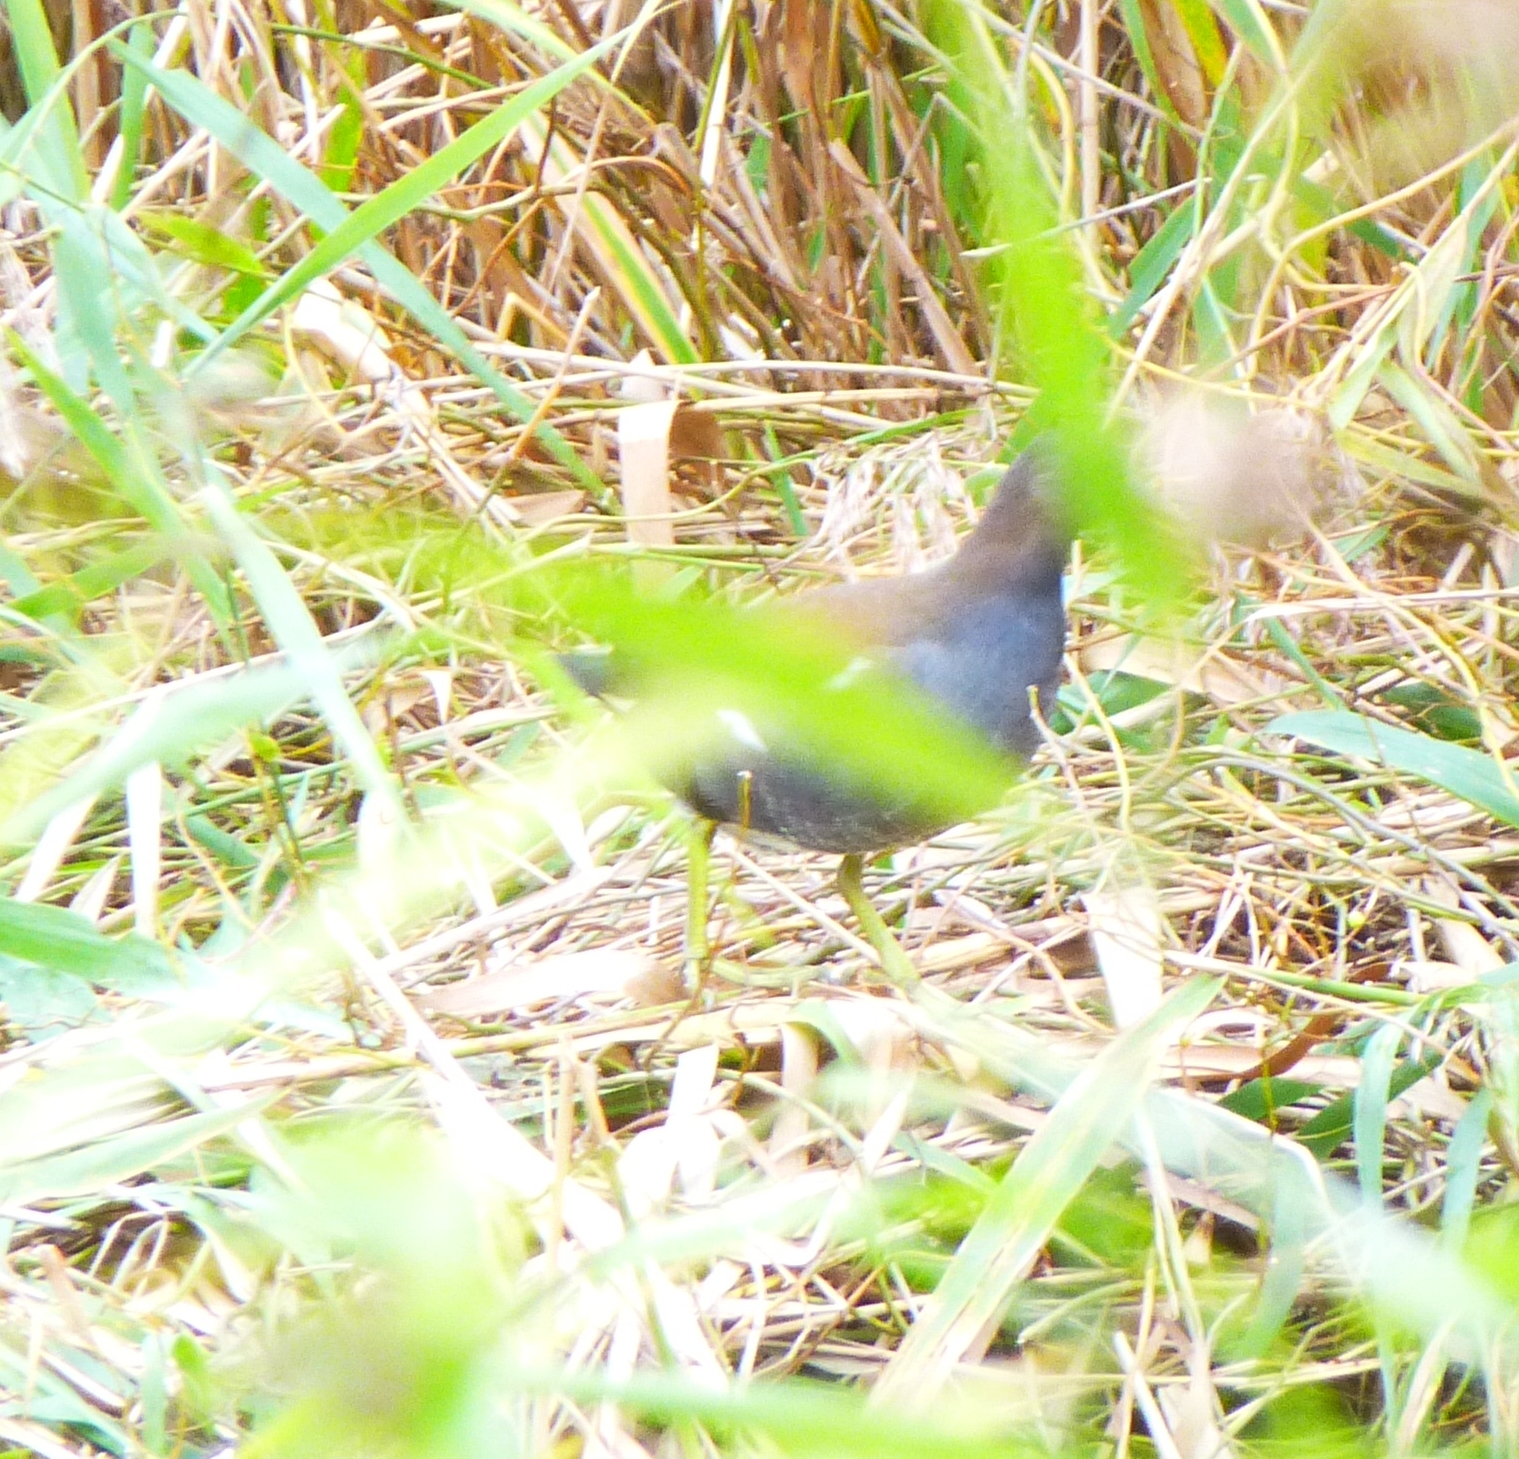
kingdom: Animalia
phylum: Chordata
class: Aves
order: Gruiformes
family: Rallidae
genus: Gallinula
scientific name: Gallinula chloropus
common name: Common moorhen
